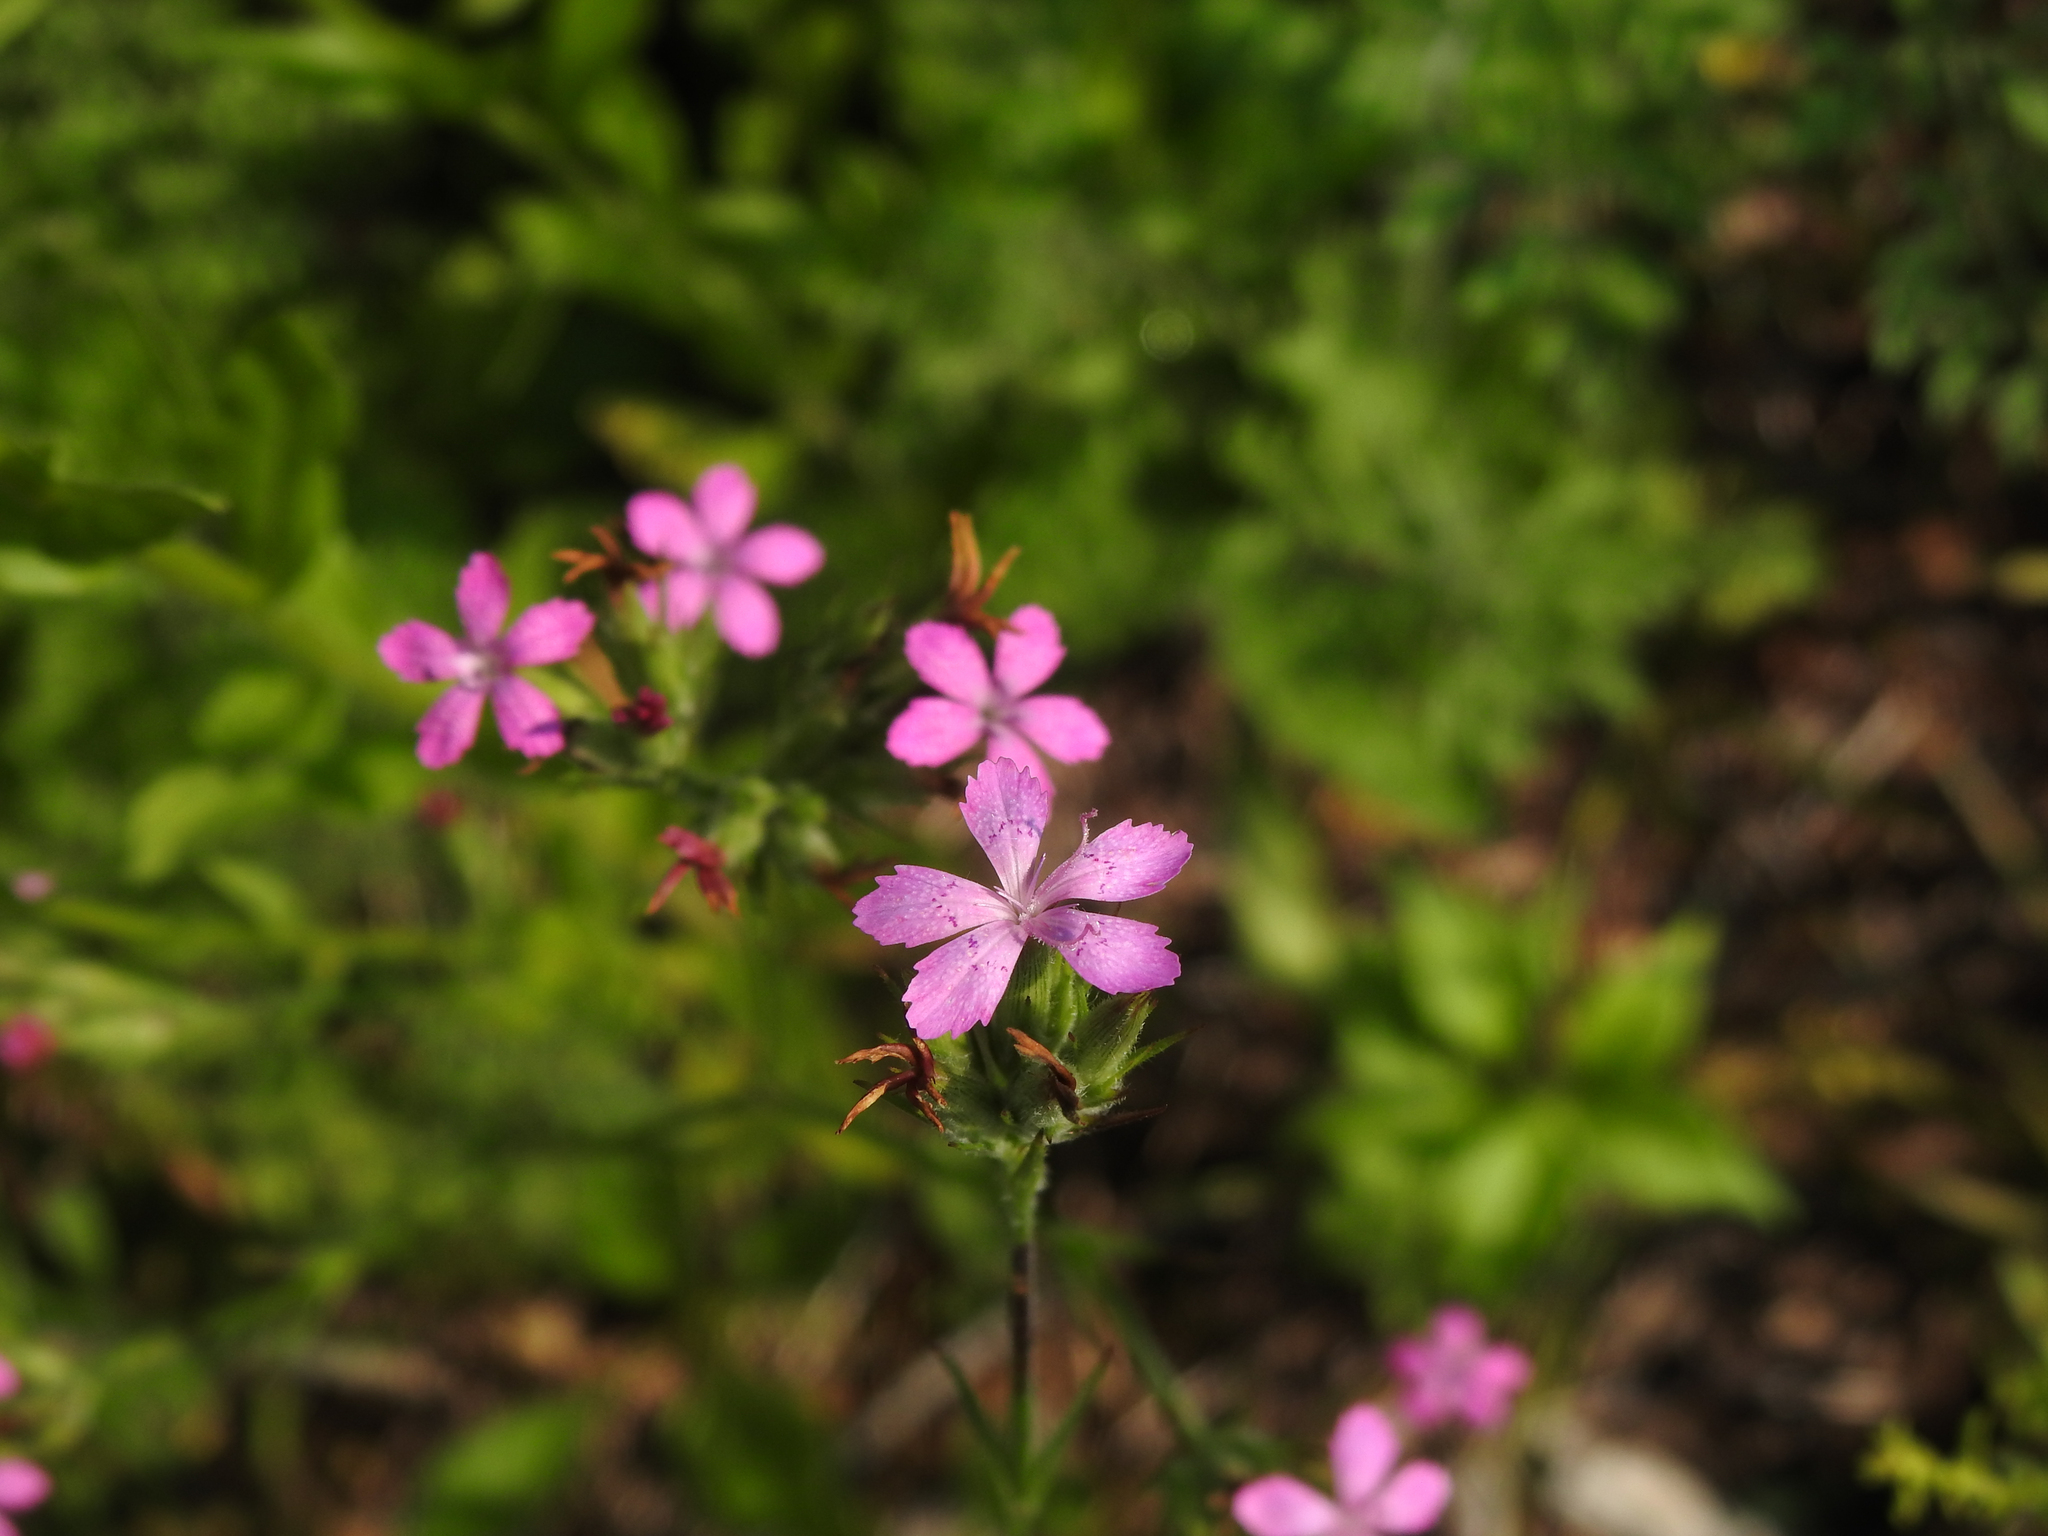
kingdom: Plantae
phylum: Tracheophyta
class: Magnoliopsida
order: Caryophyllales
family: Caryophyllaceae
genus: Dianthus
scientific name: Dianthus armeria
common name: Deptford pink
